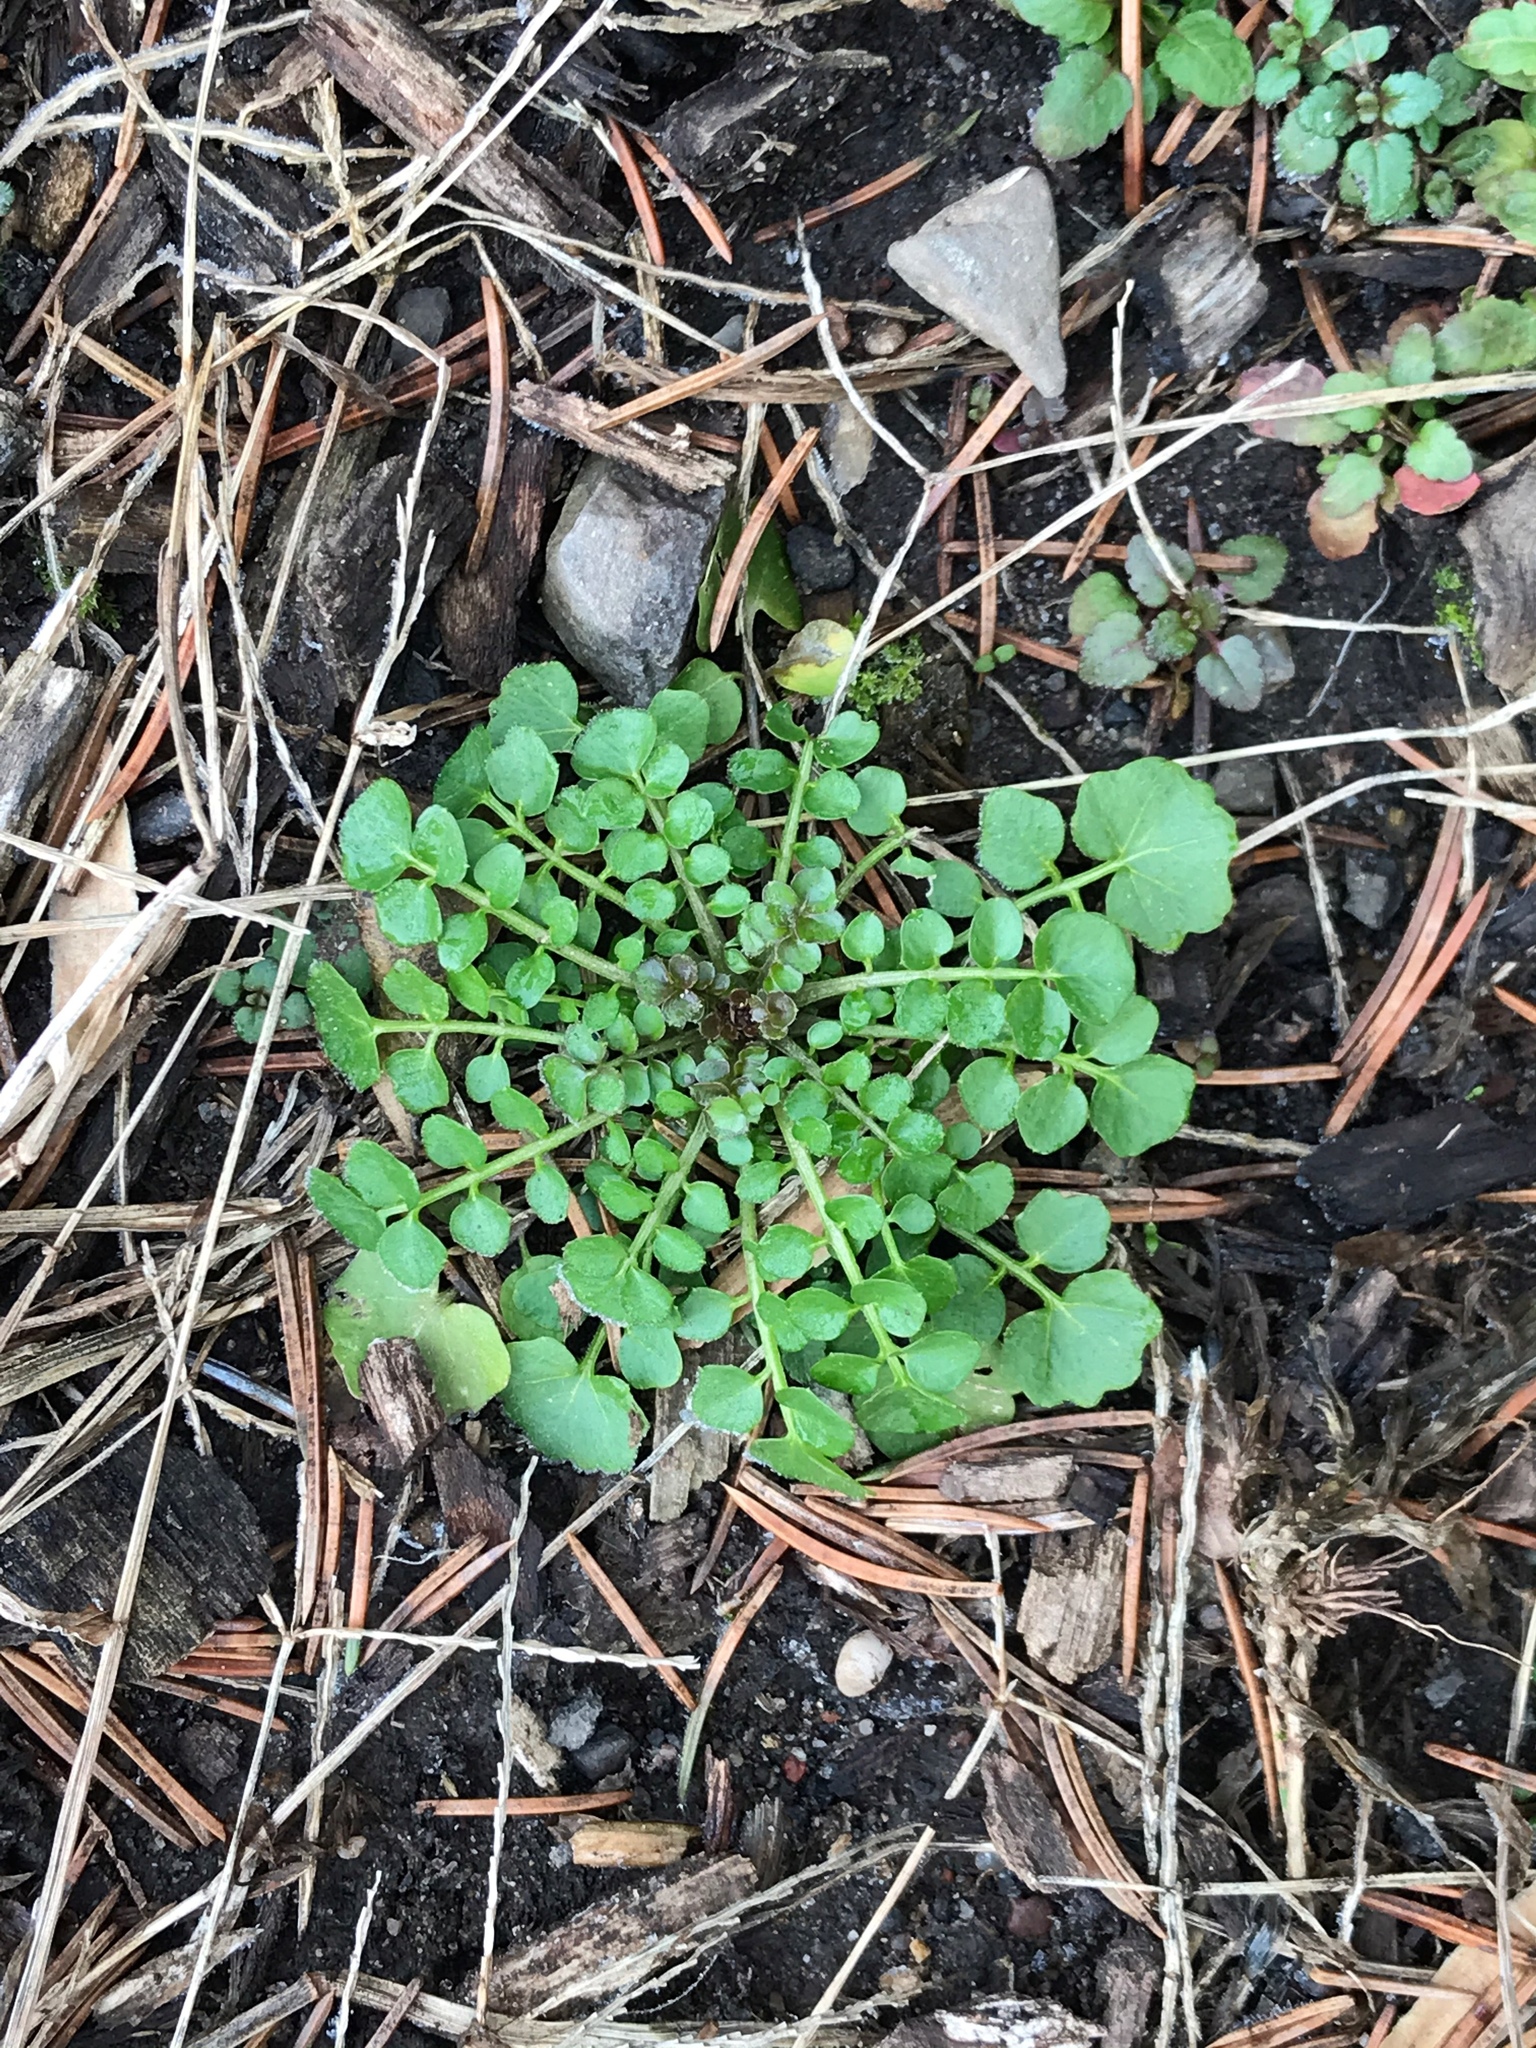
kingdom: Plantae
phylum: Tracheophyta
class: Magnoliopsida
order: Brassicales
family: Brassicaceae
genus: Cardamine
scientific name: Cardamine hirsuta
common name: Hairy bittercress
